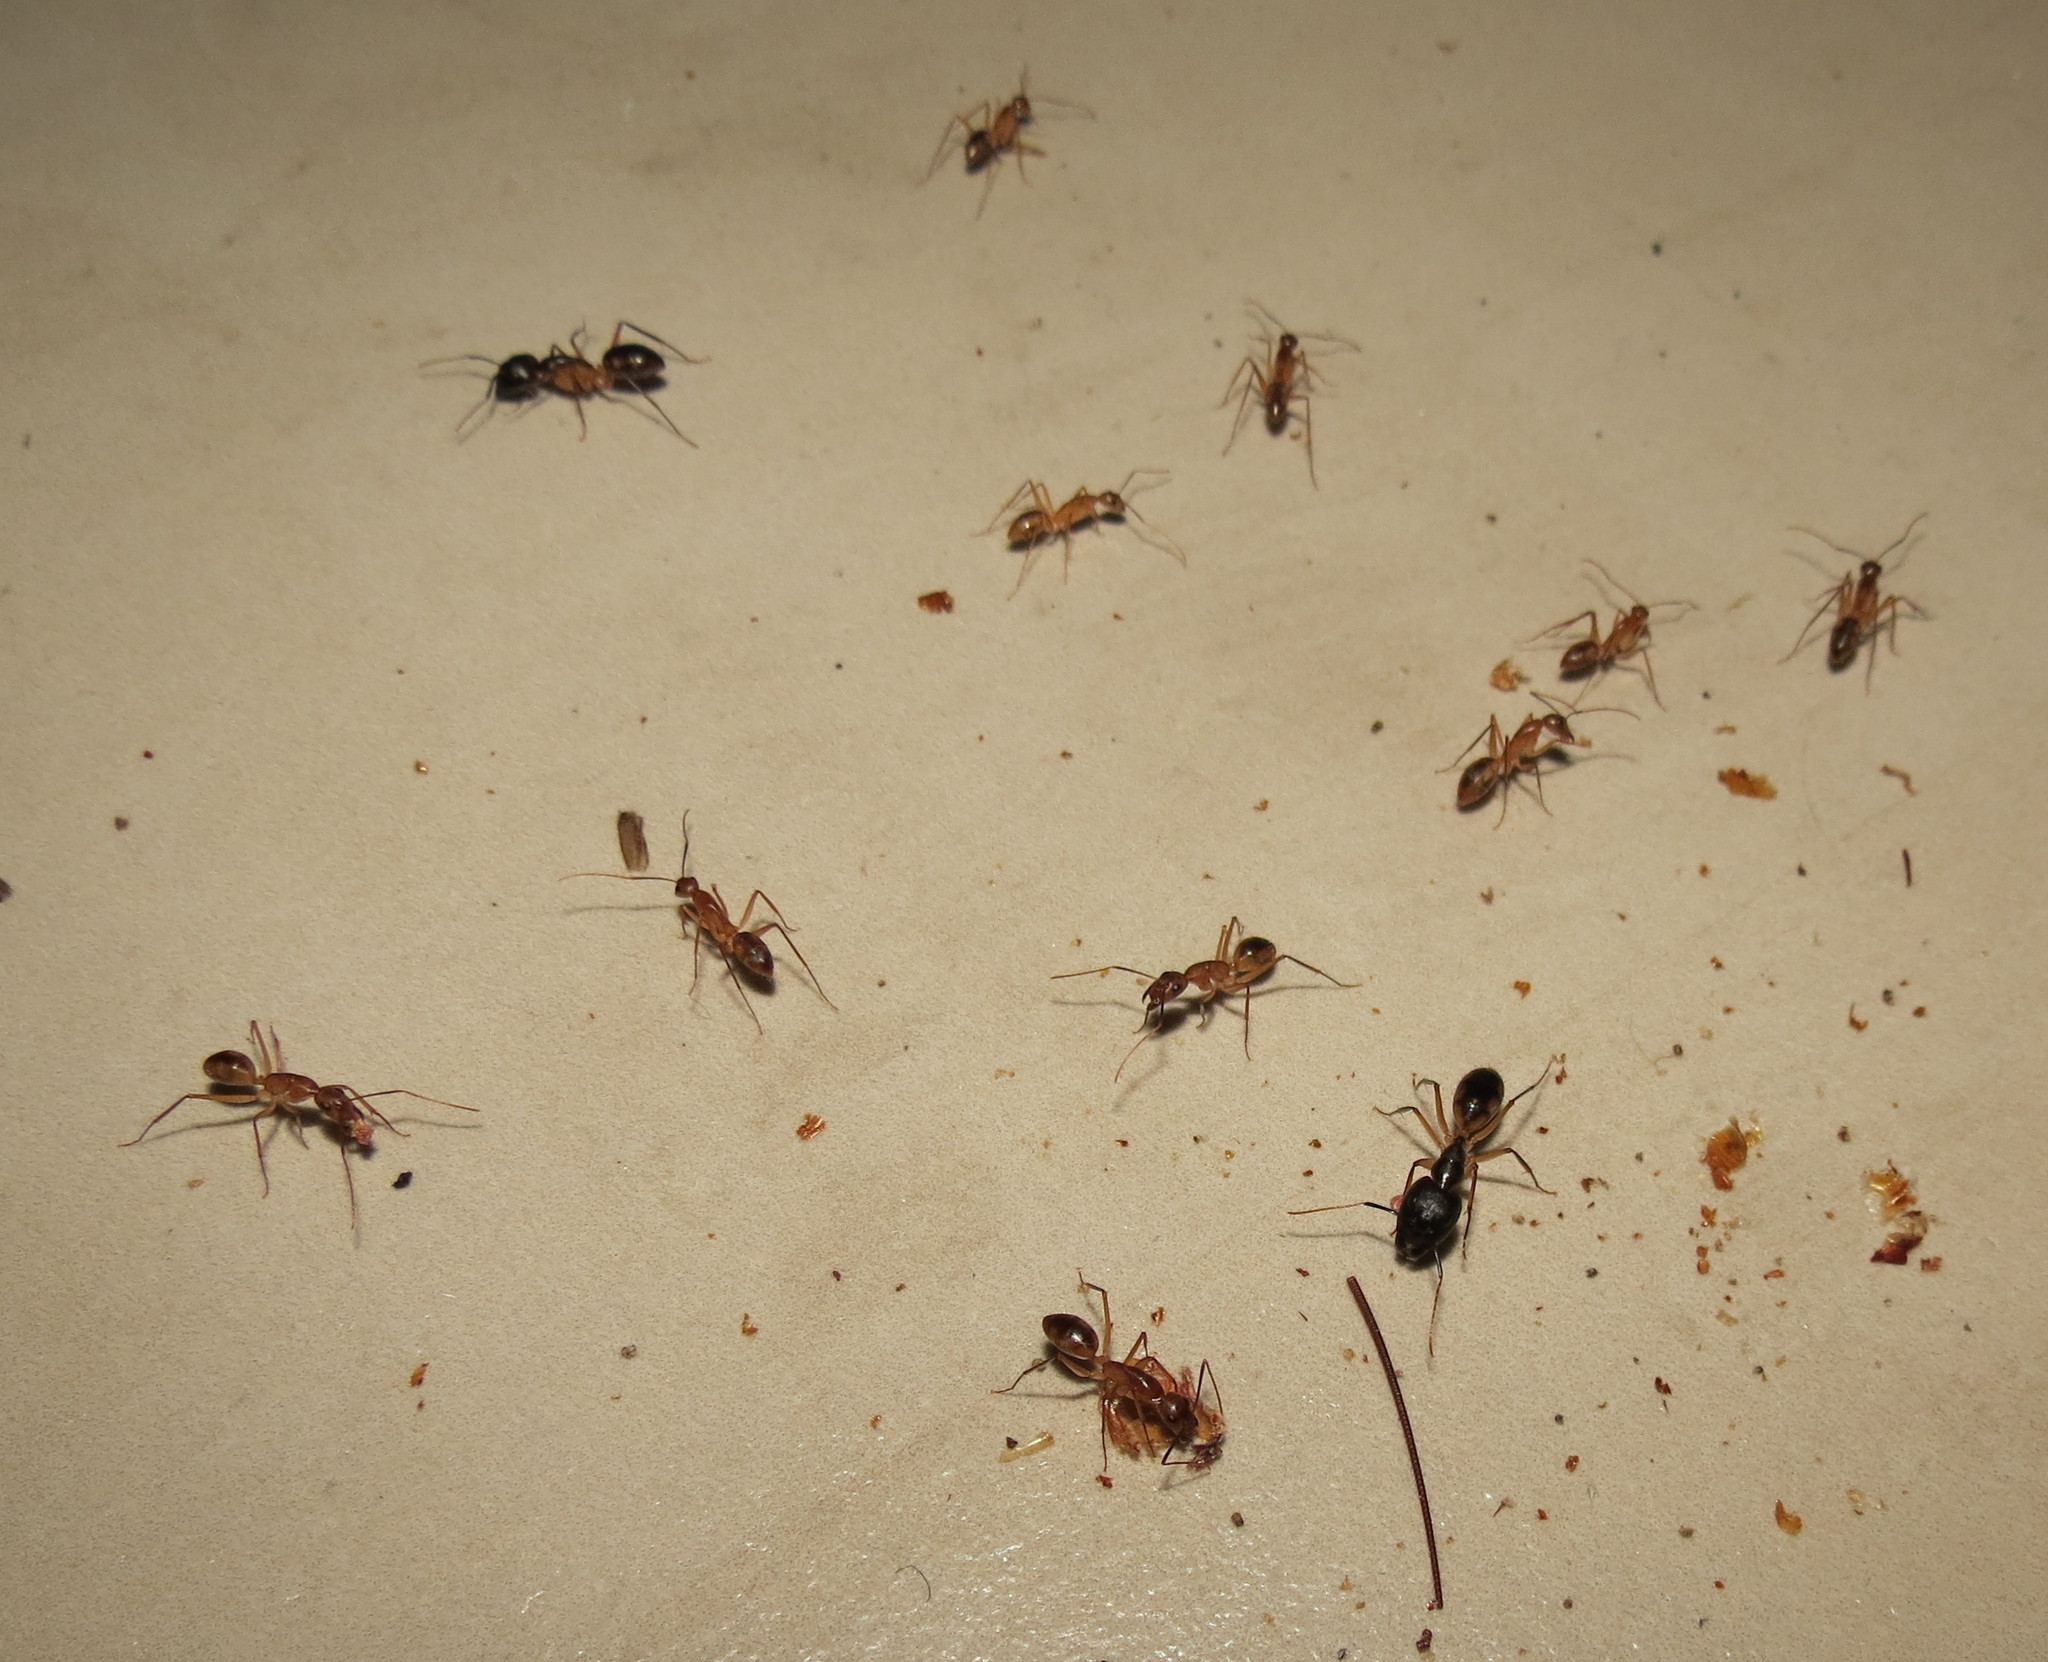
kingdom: Animalia
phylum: Arthropoda
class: Insecta
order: Hymenoptera
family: Formicidae
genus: Camponotus
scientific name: Camponotus maculatus
